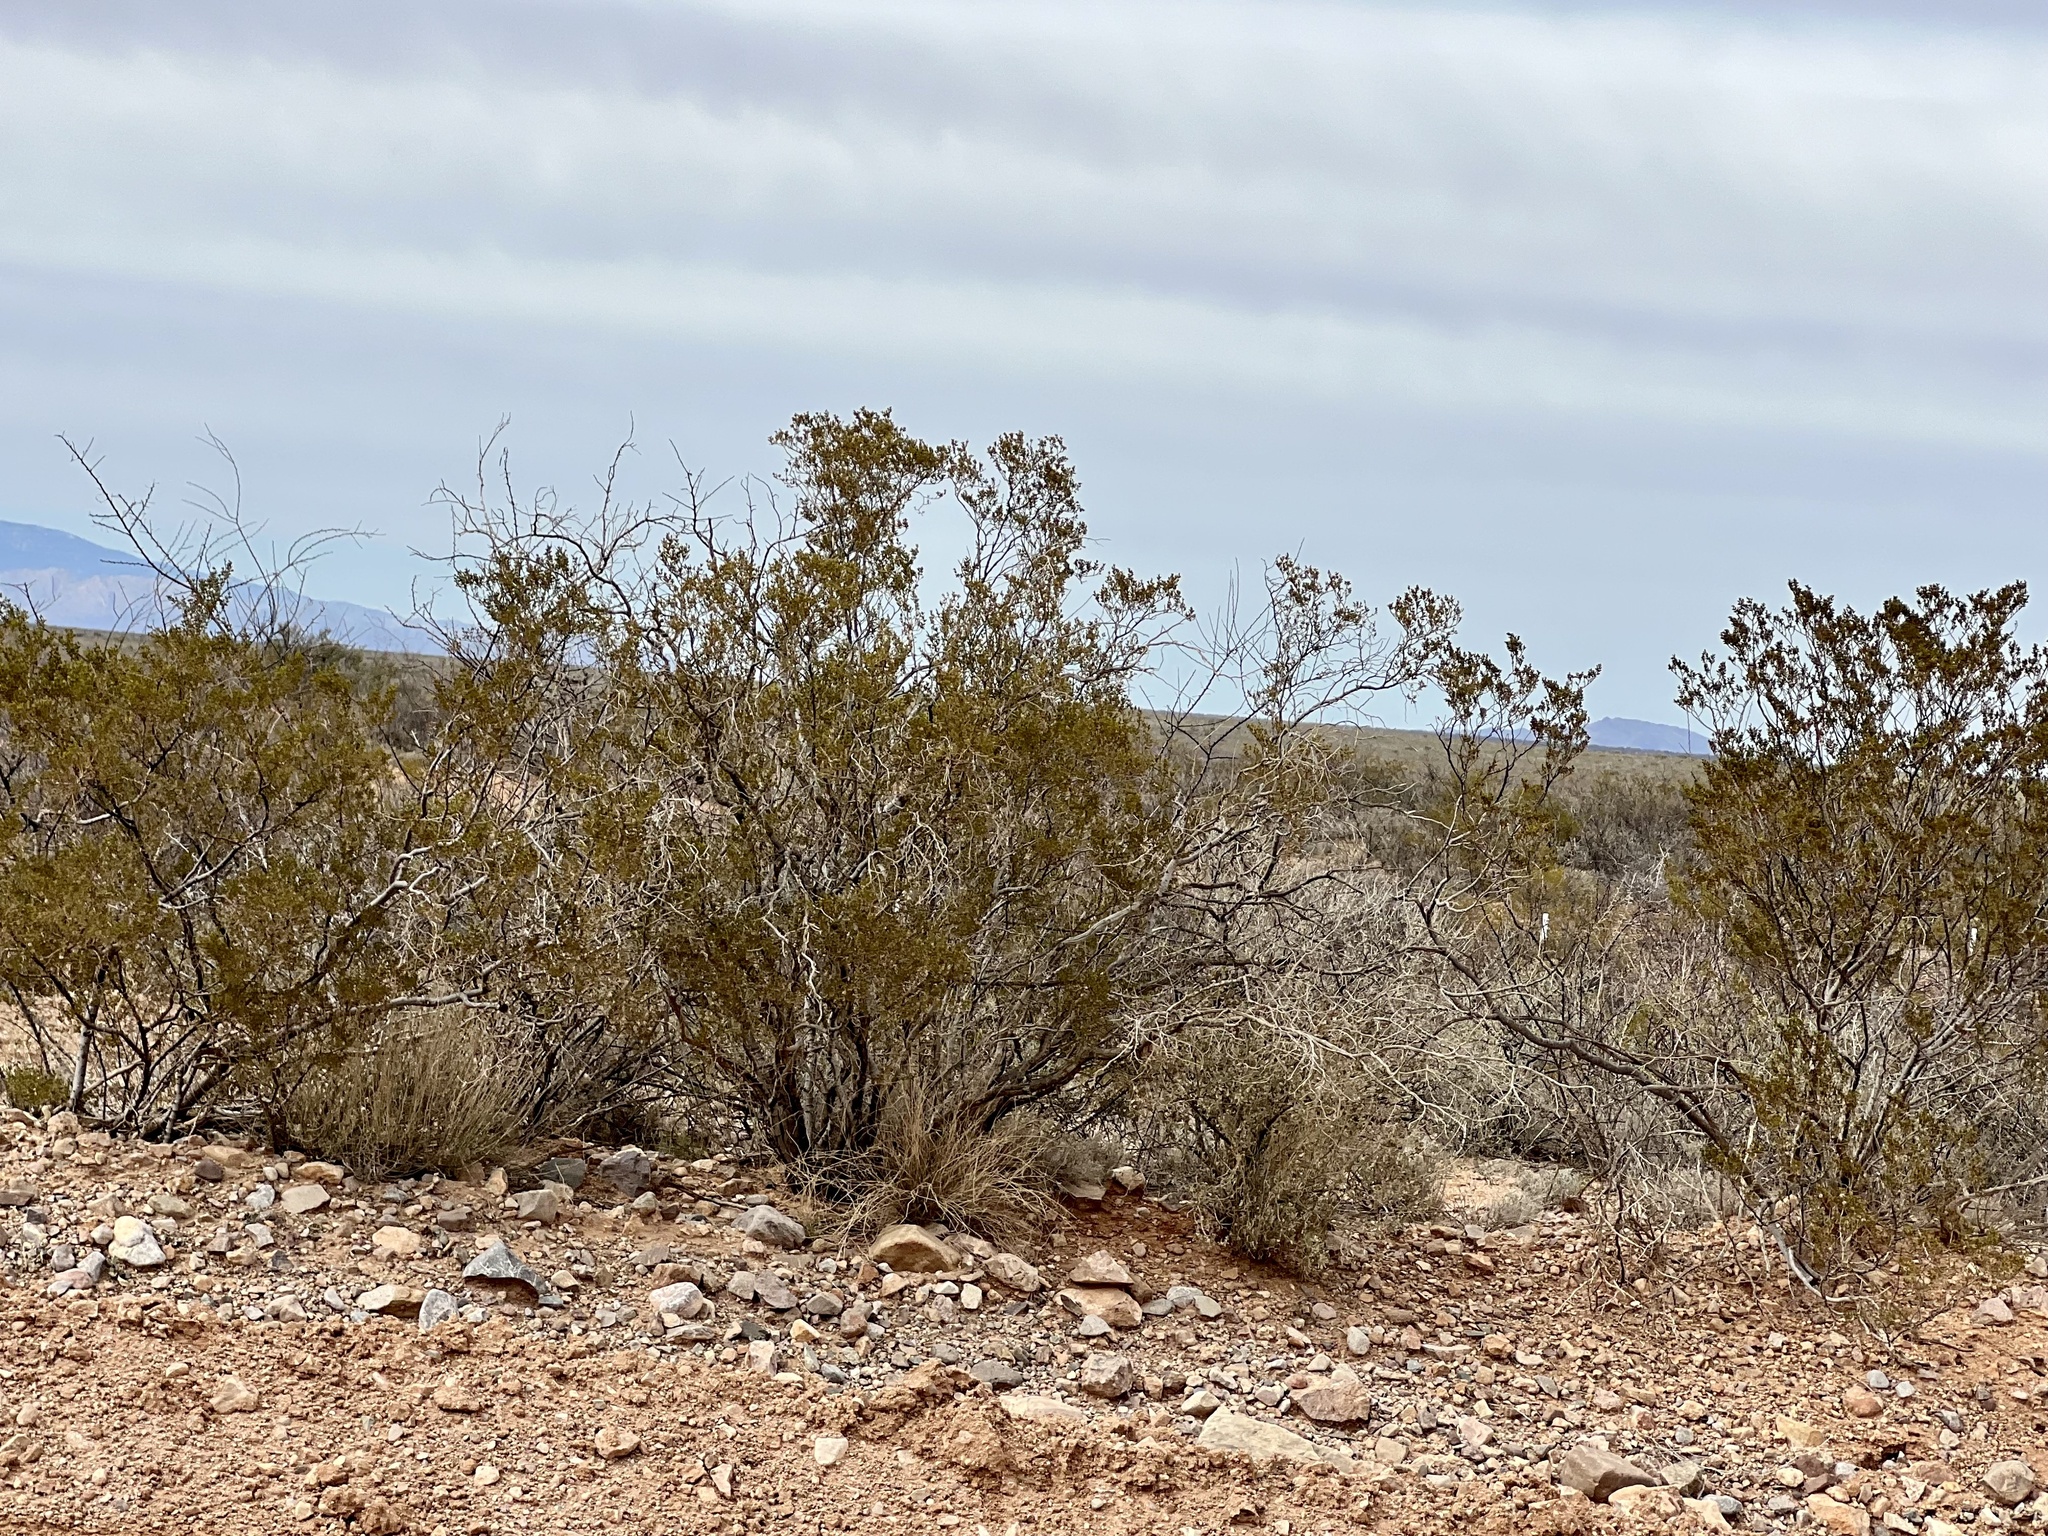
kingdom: Plantae
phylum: Tracheophyta
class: Magnoliopsida
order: Zygophyllales
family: Zygophyllaceae
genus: Larrea
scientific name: Larrea tridentata
